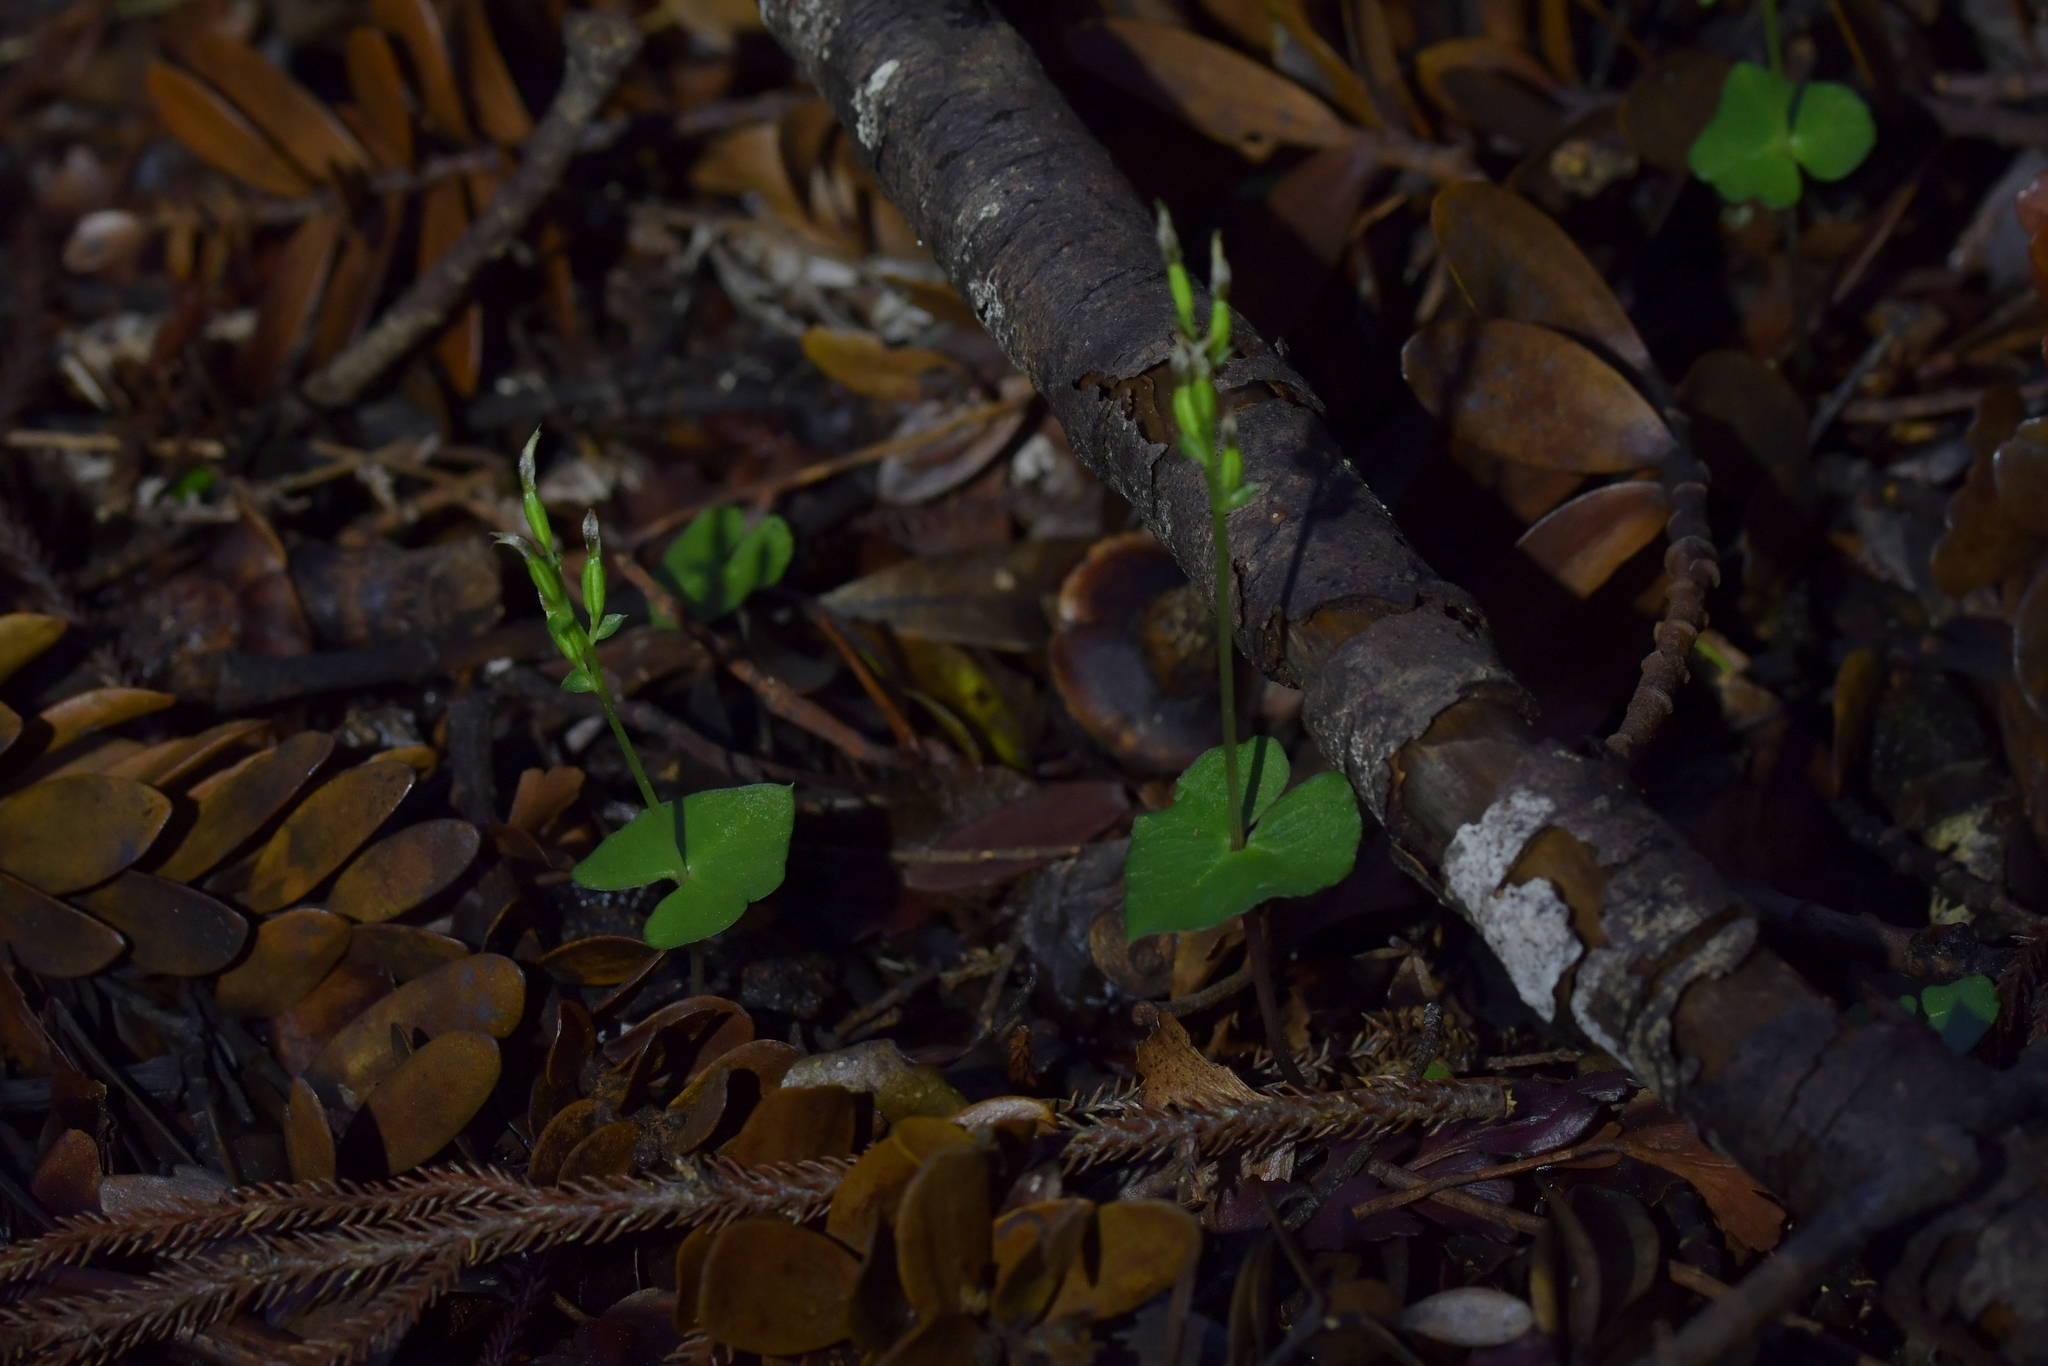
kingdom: Plantae
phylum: Tracheophyta
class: Liliopsida
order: Asparagales
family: Orchidaceae
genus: Acianthus
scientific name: Acianthus sinclairii
